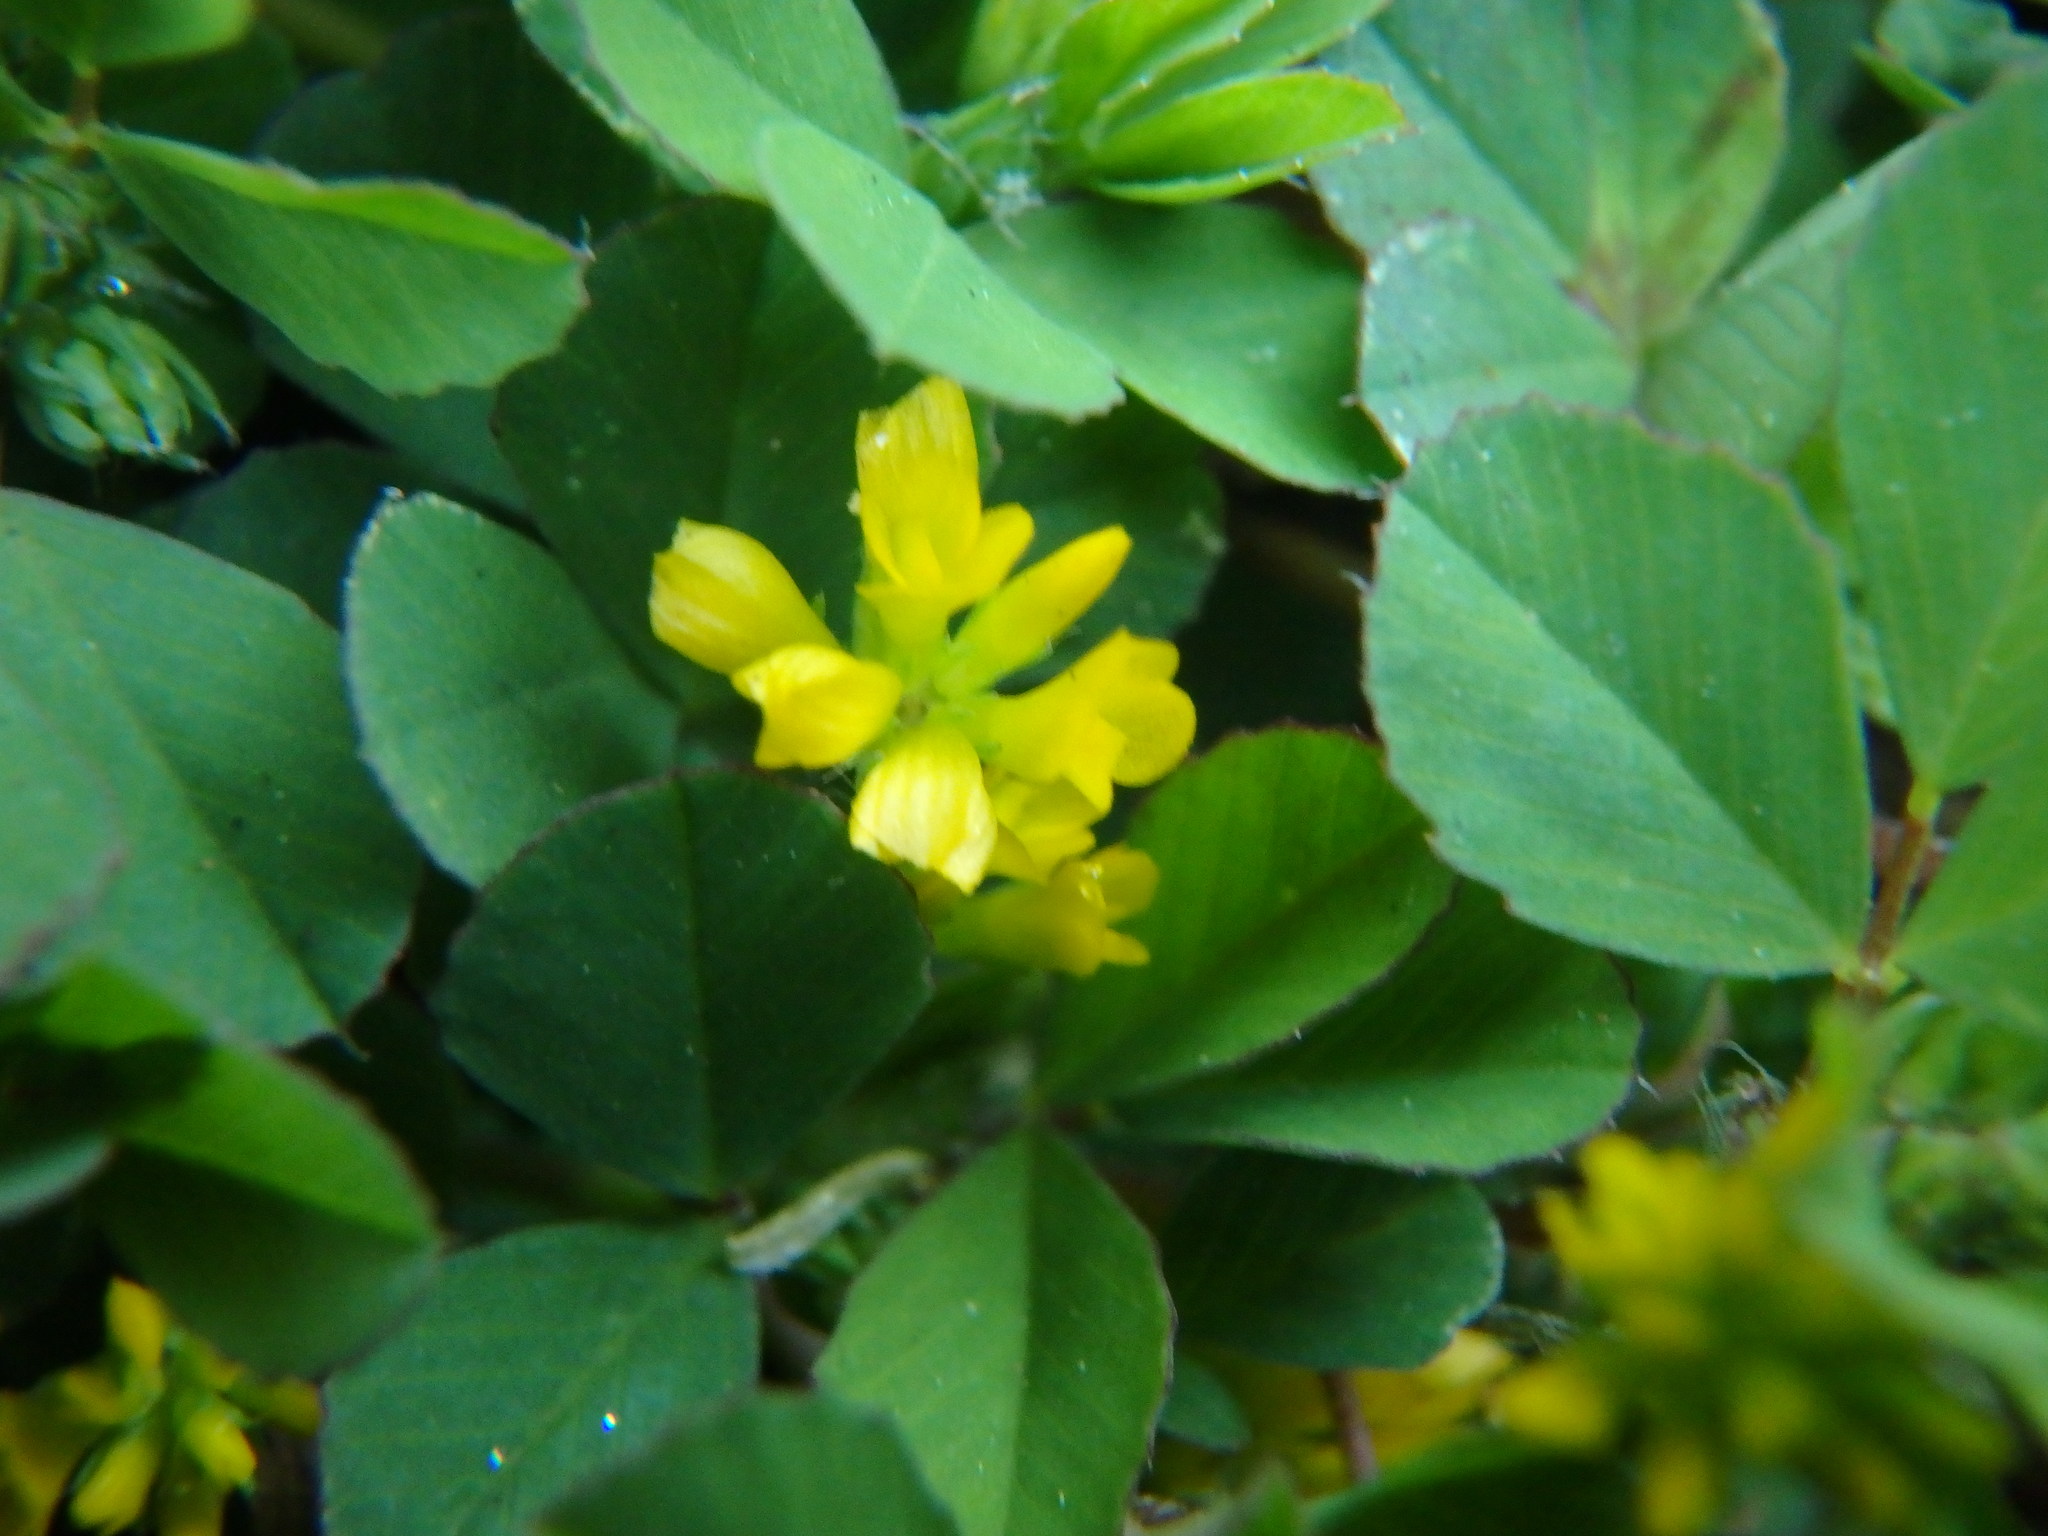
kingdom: Plantae
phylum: Tracheophyta
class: Magnoliopsida
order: Fabales
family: Fabaceae
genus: Trifolium
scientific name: Trifolium dubium
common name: Suckling clover
